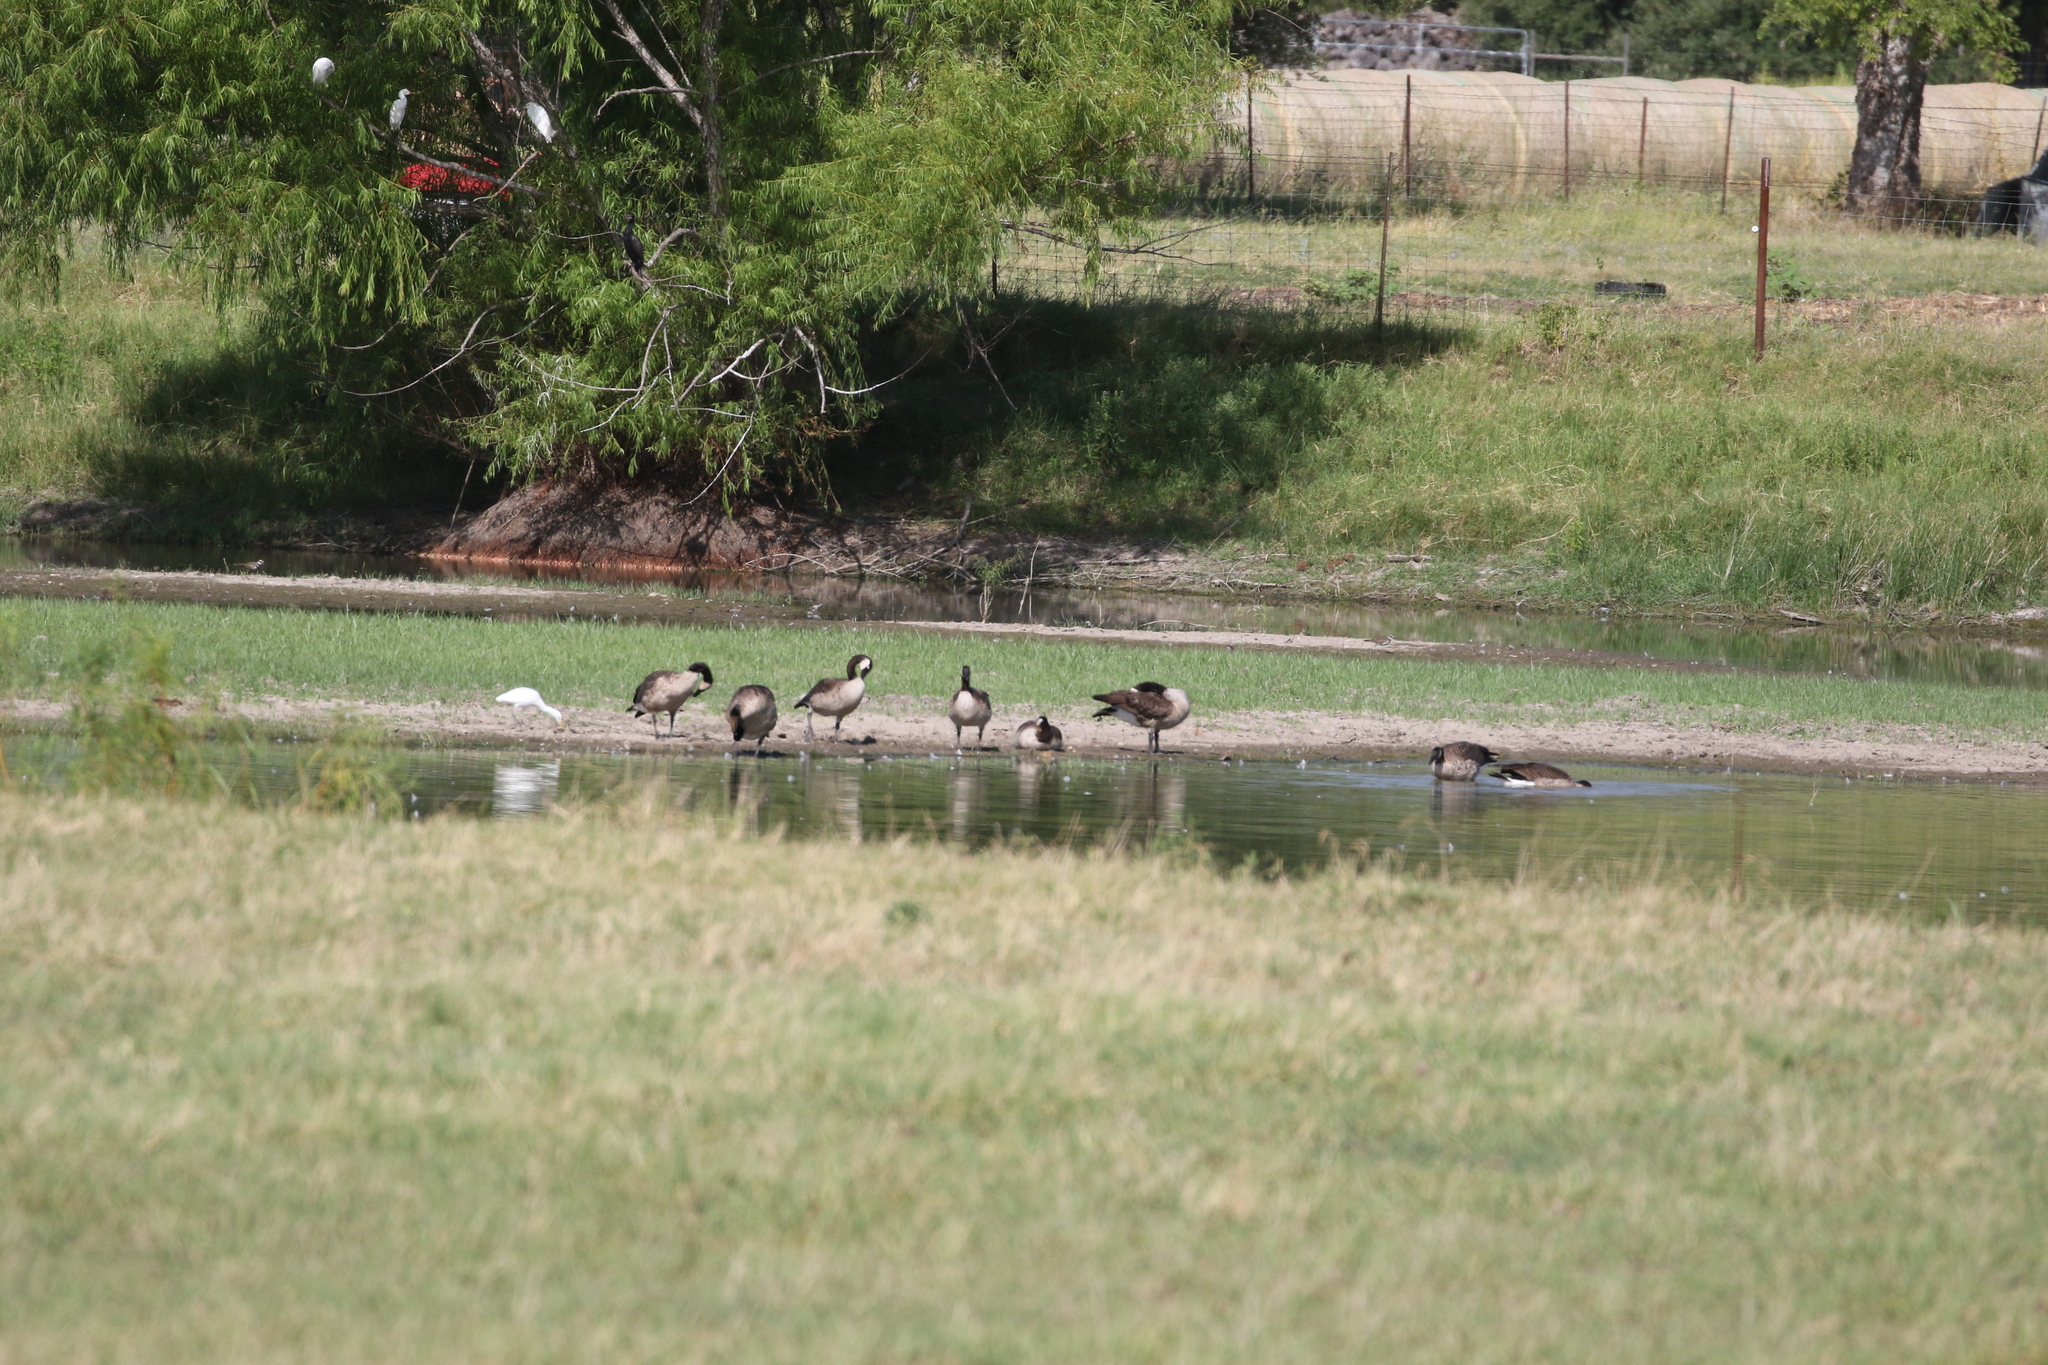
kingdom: Animalia
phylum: Chordata
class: Aves
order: Anseriformes
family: Anatidae
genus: Branta
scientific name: Branta canadensis
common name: Canada goose
